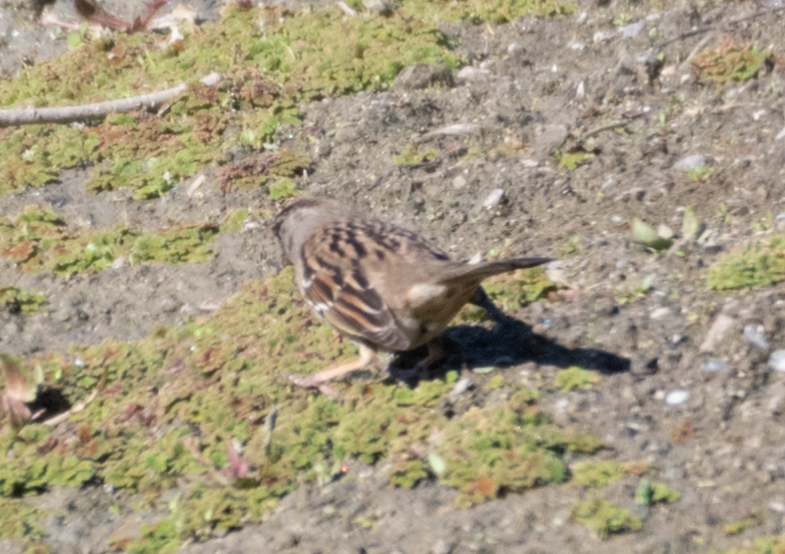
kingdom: Animalia
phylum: Chordata
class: Aves
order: Passeriformes
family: Passerellidae
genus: Zonotrichia
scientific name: Zonotrichia atricapilla
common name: Golden-crowned sparrow
